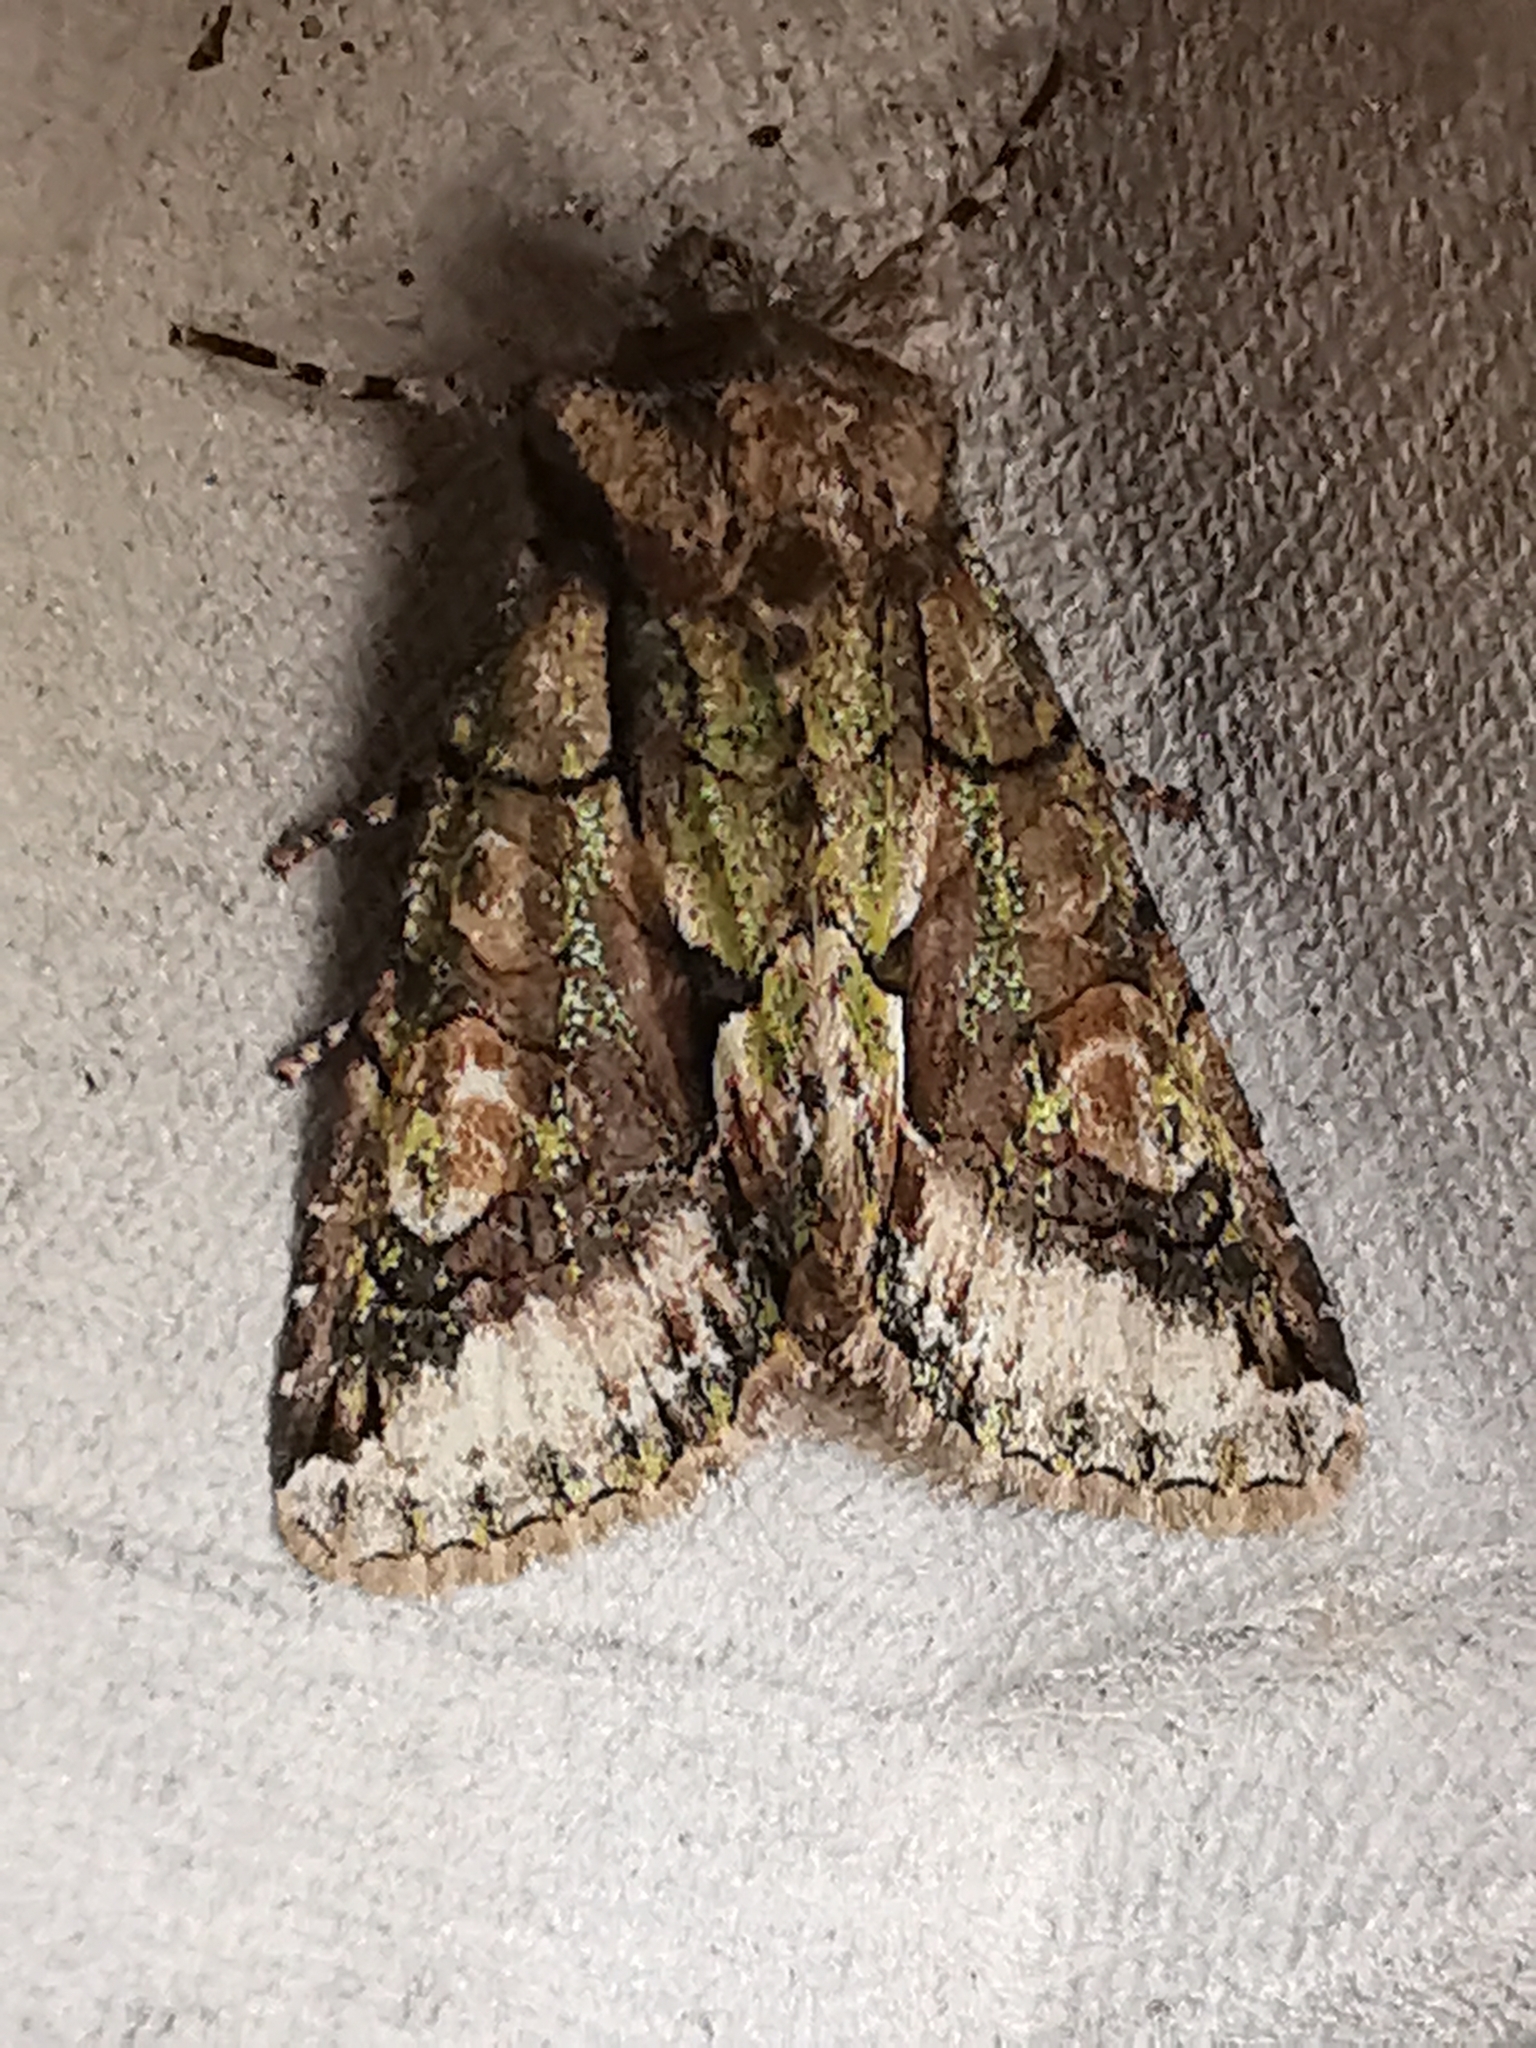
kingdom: Animalia
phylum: Arthropoda
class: Insecta
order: Lepidoptera
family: Noctuidae
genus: Allophyes
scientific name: Allophyes oxyacanthae
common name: Green-brindled crescent
